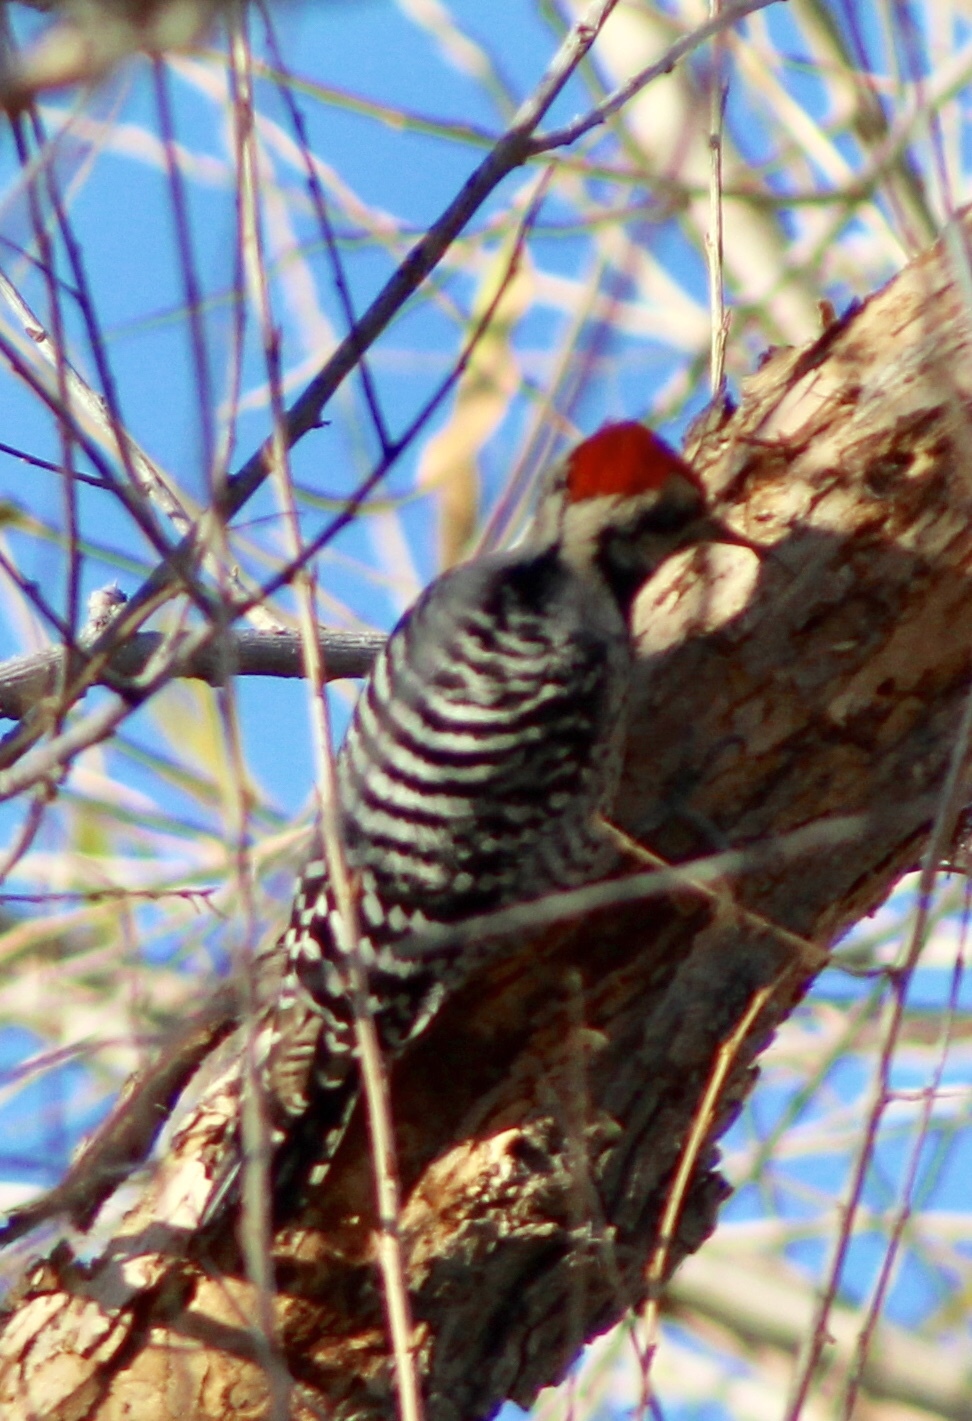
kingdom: Animalia
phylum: Chordata
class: Aves
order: Piciformes
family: Picidae
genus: Dryobates
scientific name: Dryobates scalaris
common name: Ladder-backed woodpecker
